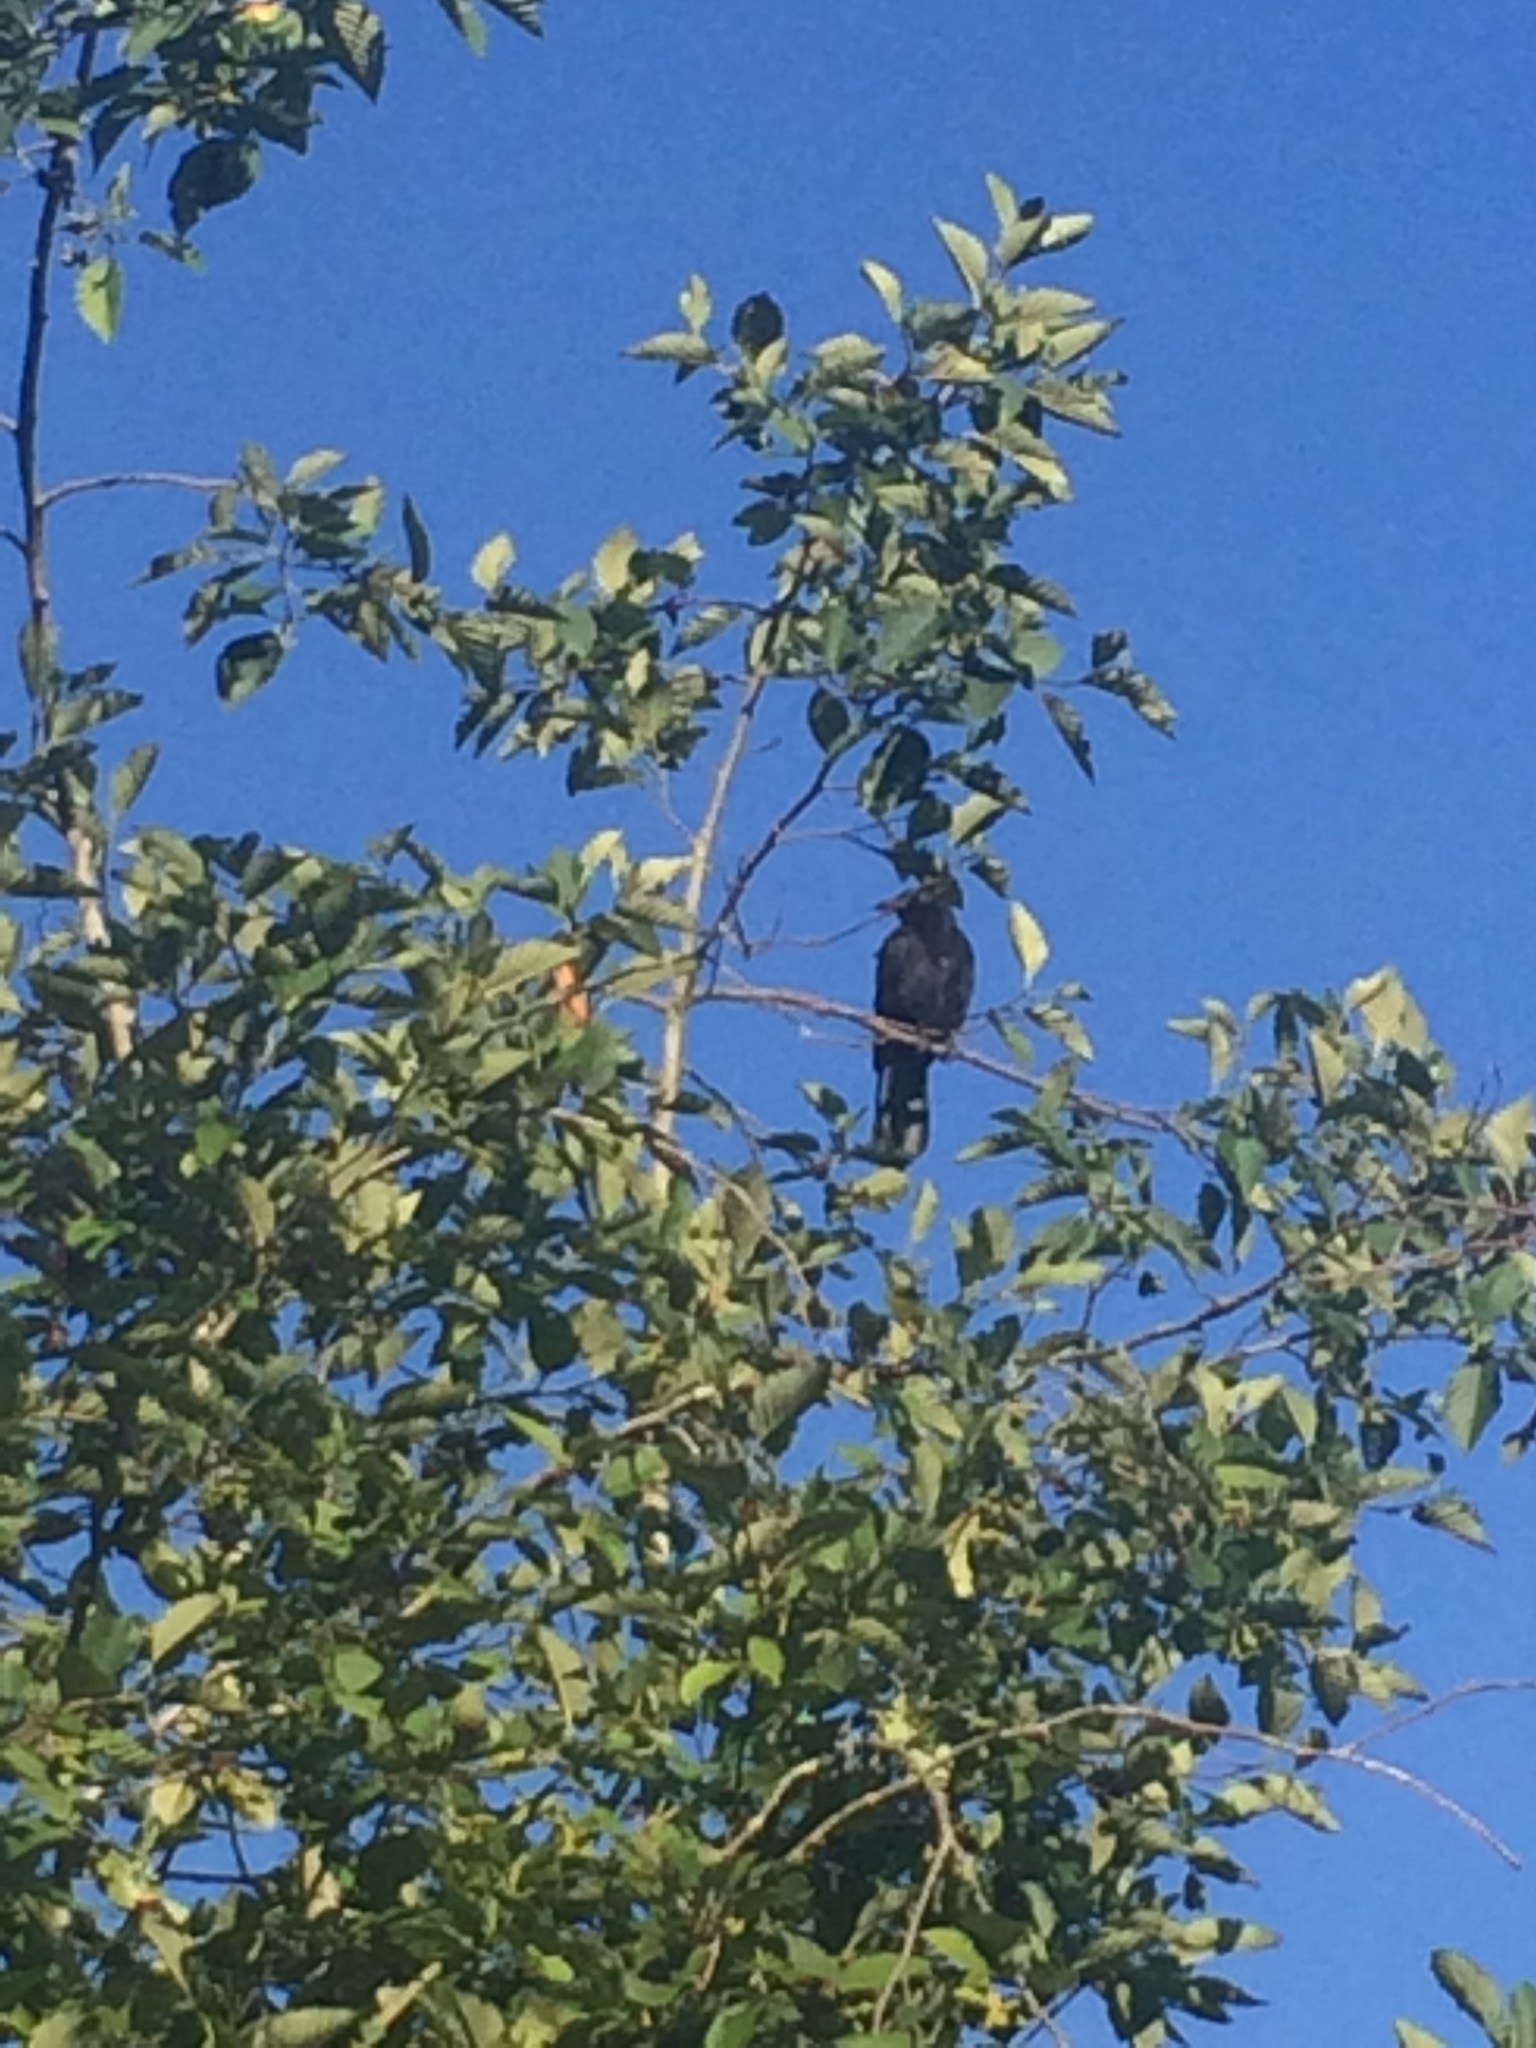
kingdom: Animalia
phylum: Chordata
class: Aves
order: Passeriformes
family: Corvidae
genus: Corvus
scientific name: Corvus brachyrhynchos
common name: American crow
